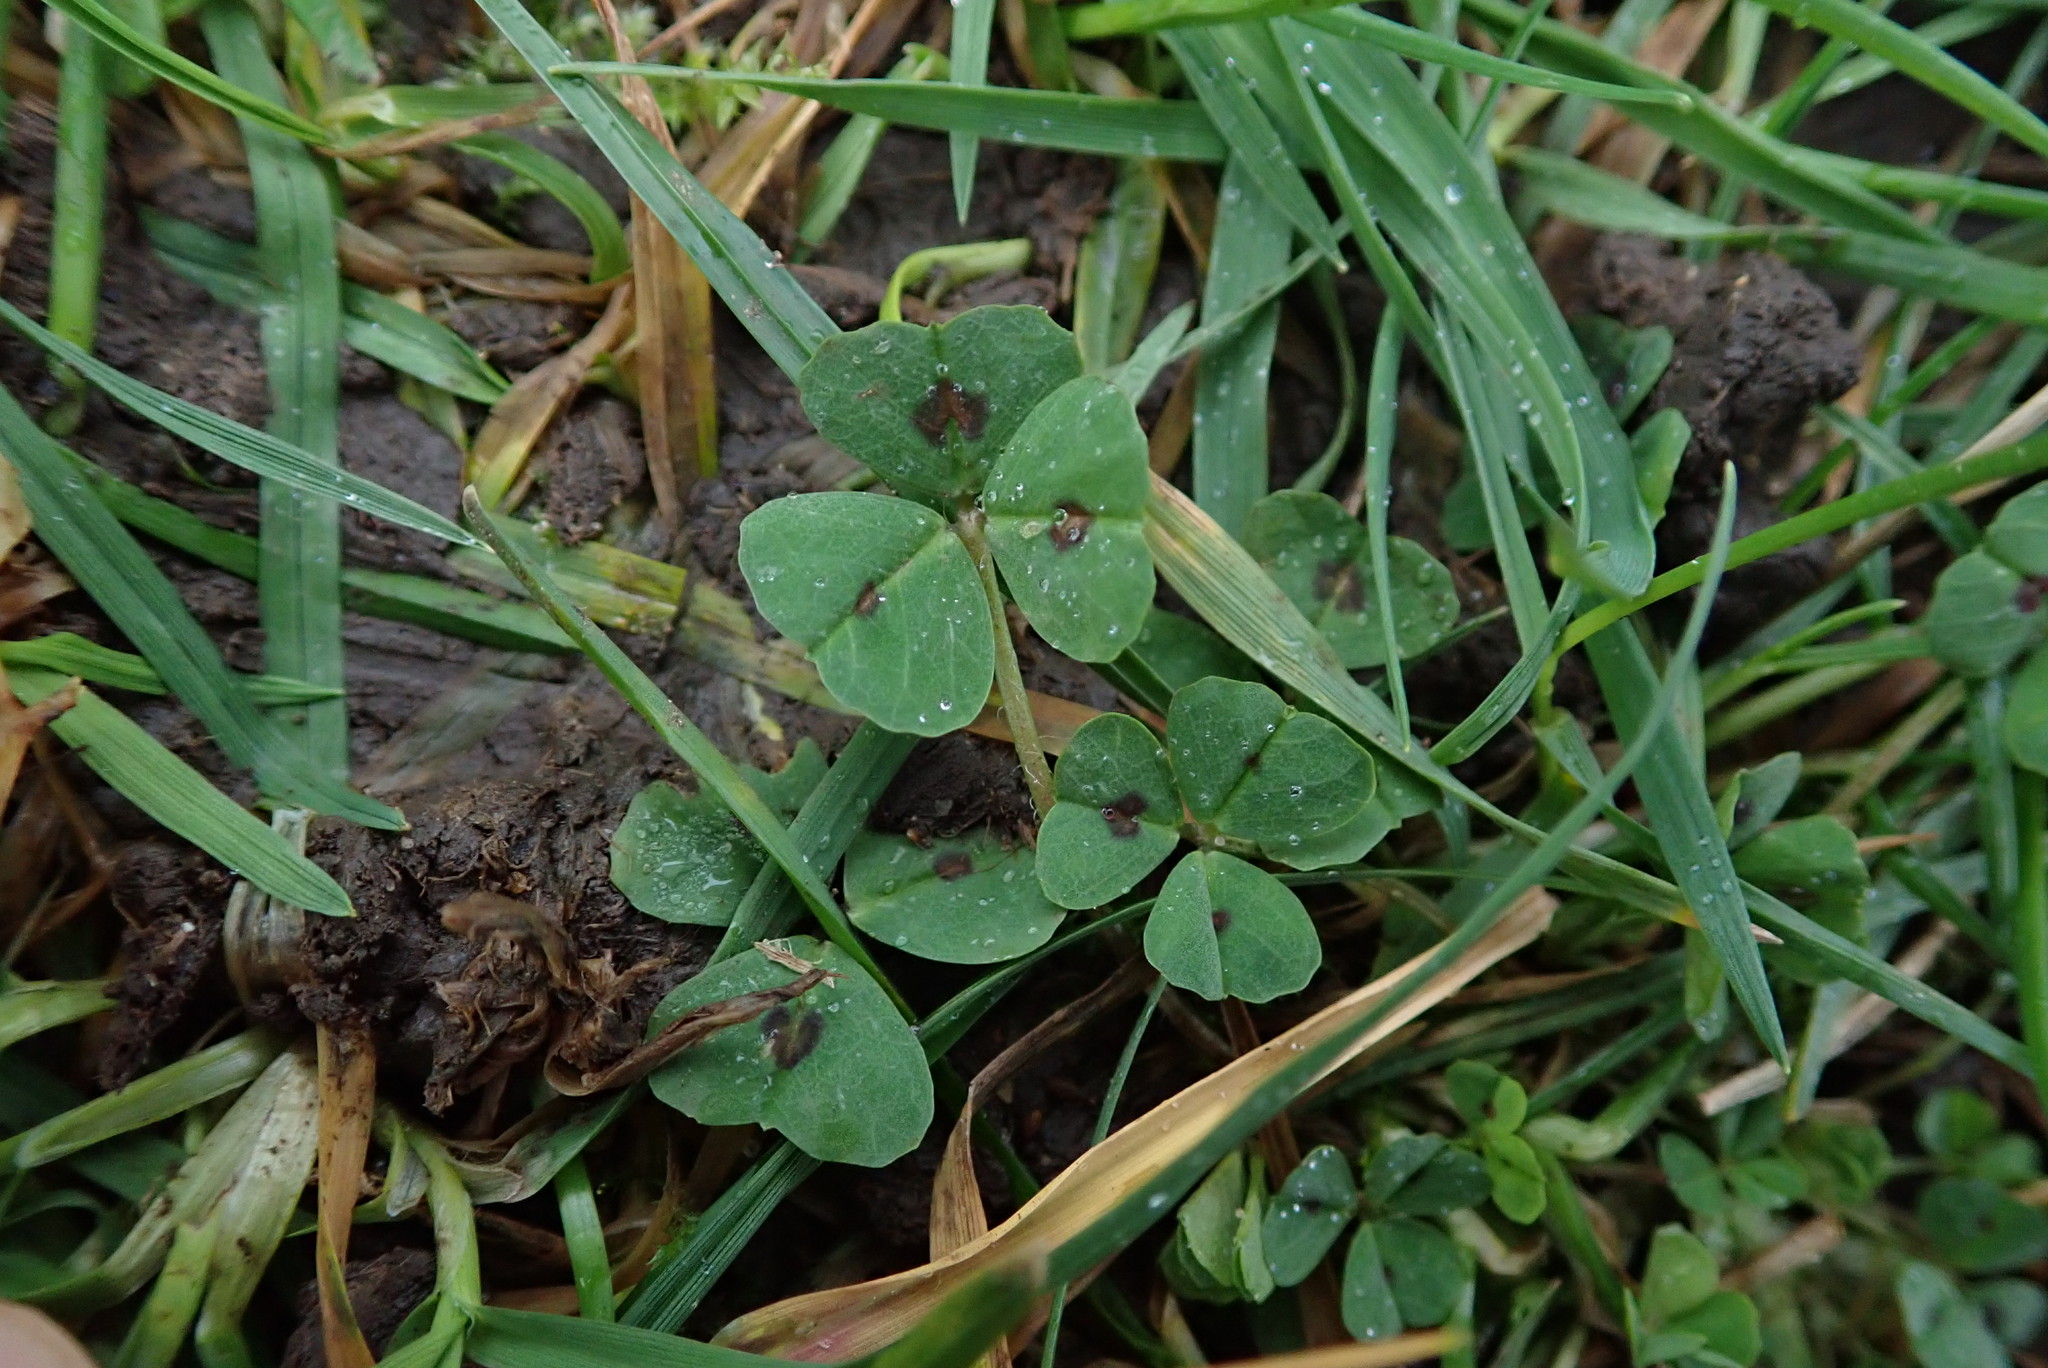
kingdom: Plantae
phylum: Tracheophyta
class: Magnoliopsida
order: Fabales
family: Fabaceae
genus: Medicago
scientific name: Medicago arabica
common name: Spotted medick
